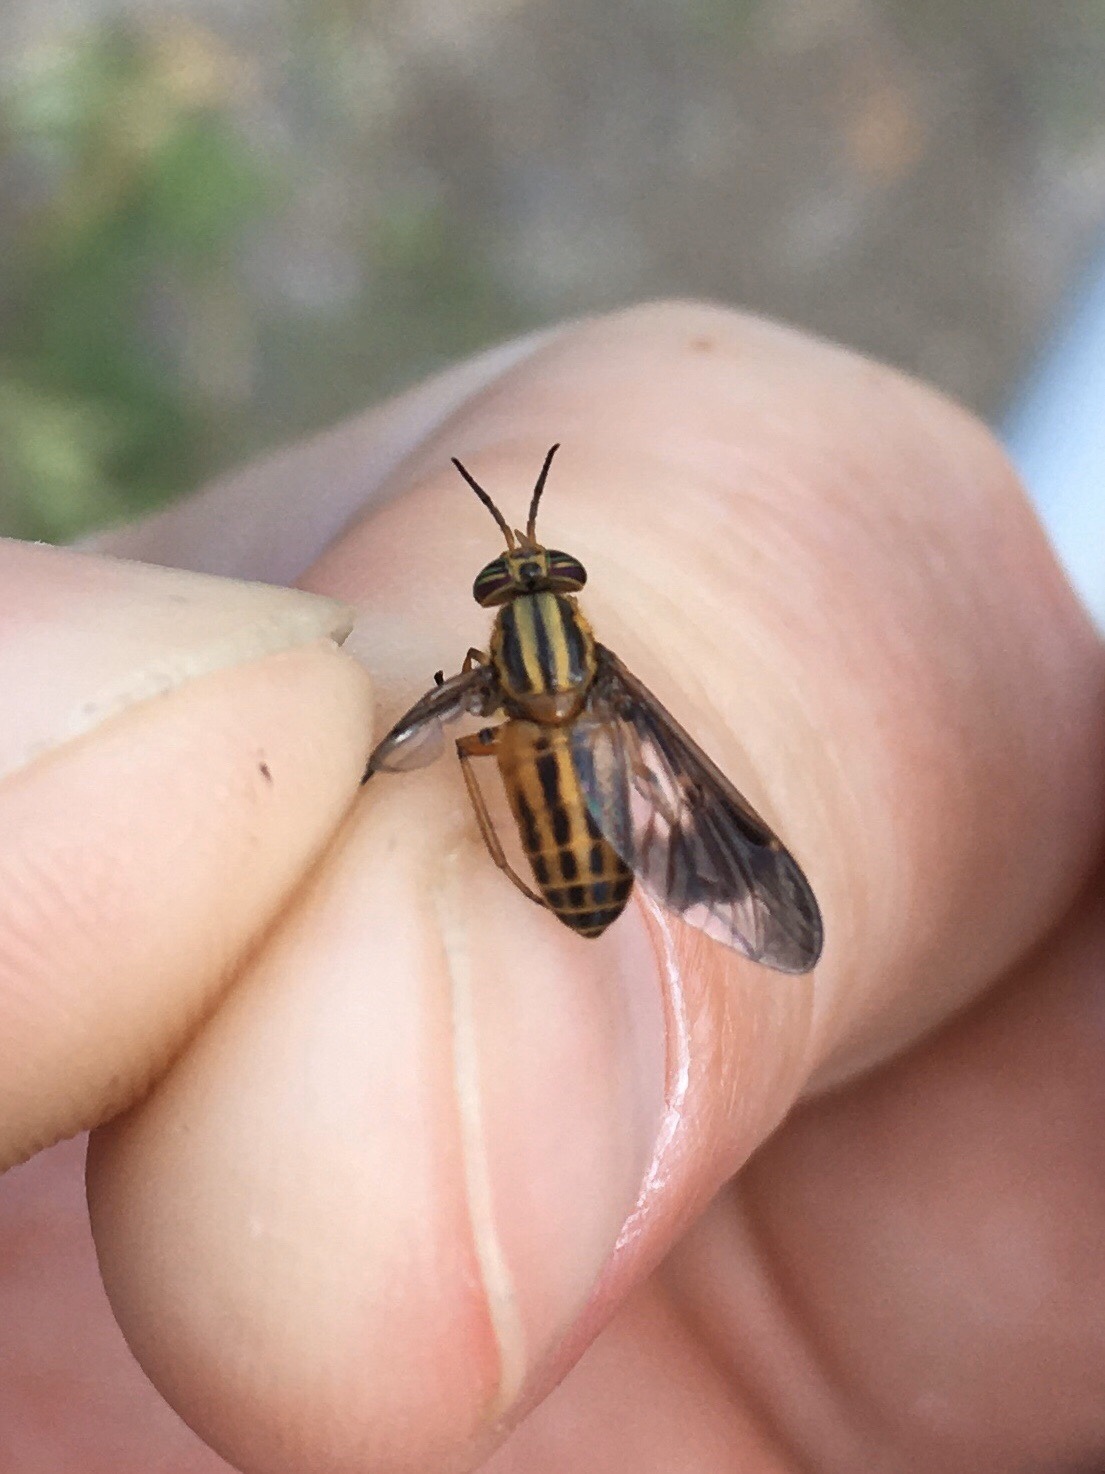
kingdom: Animalia
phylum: Arthropoda
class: Insecta
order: Diptera
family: Tabanidae
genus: Chrysops
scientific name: Chrysops vittatus
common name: Striped deer fly
